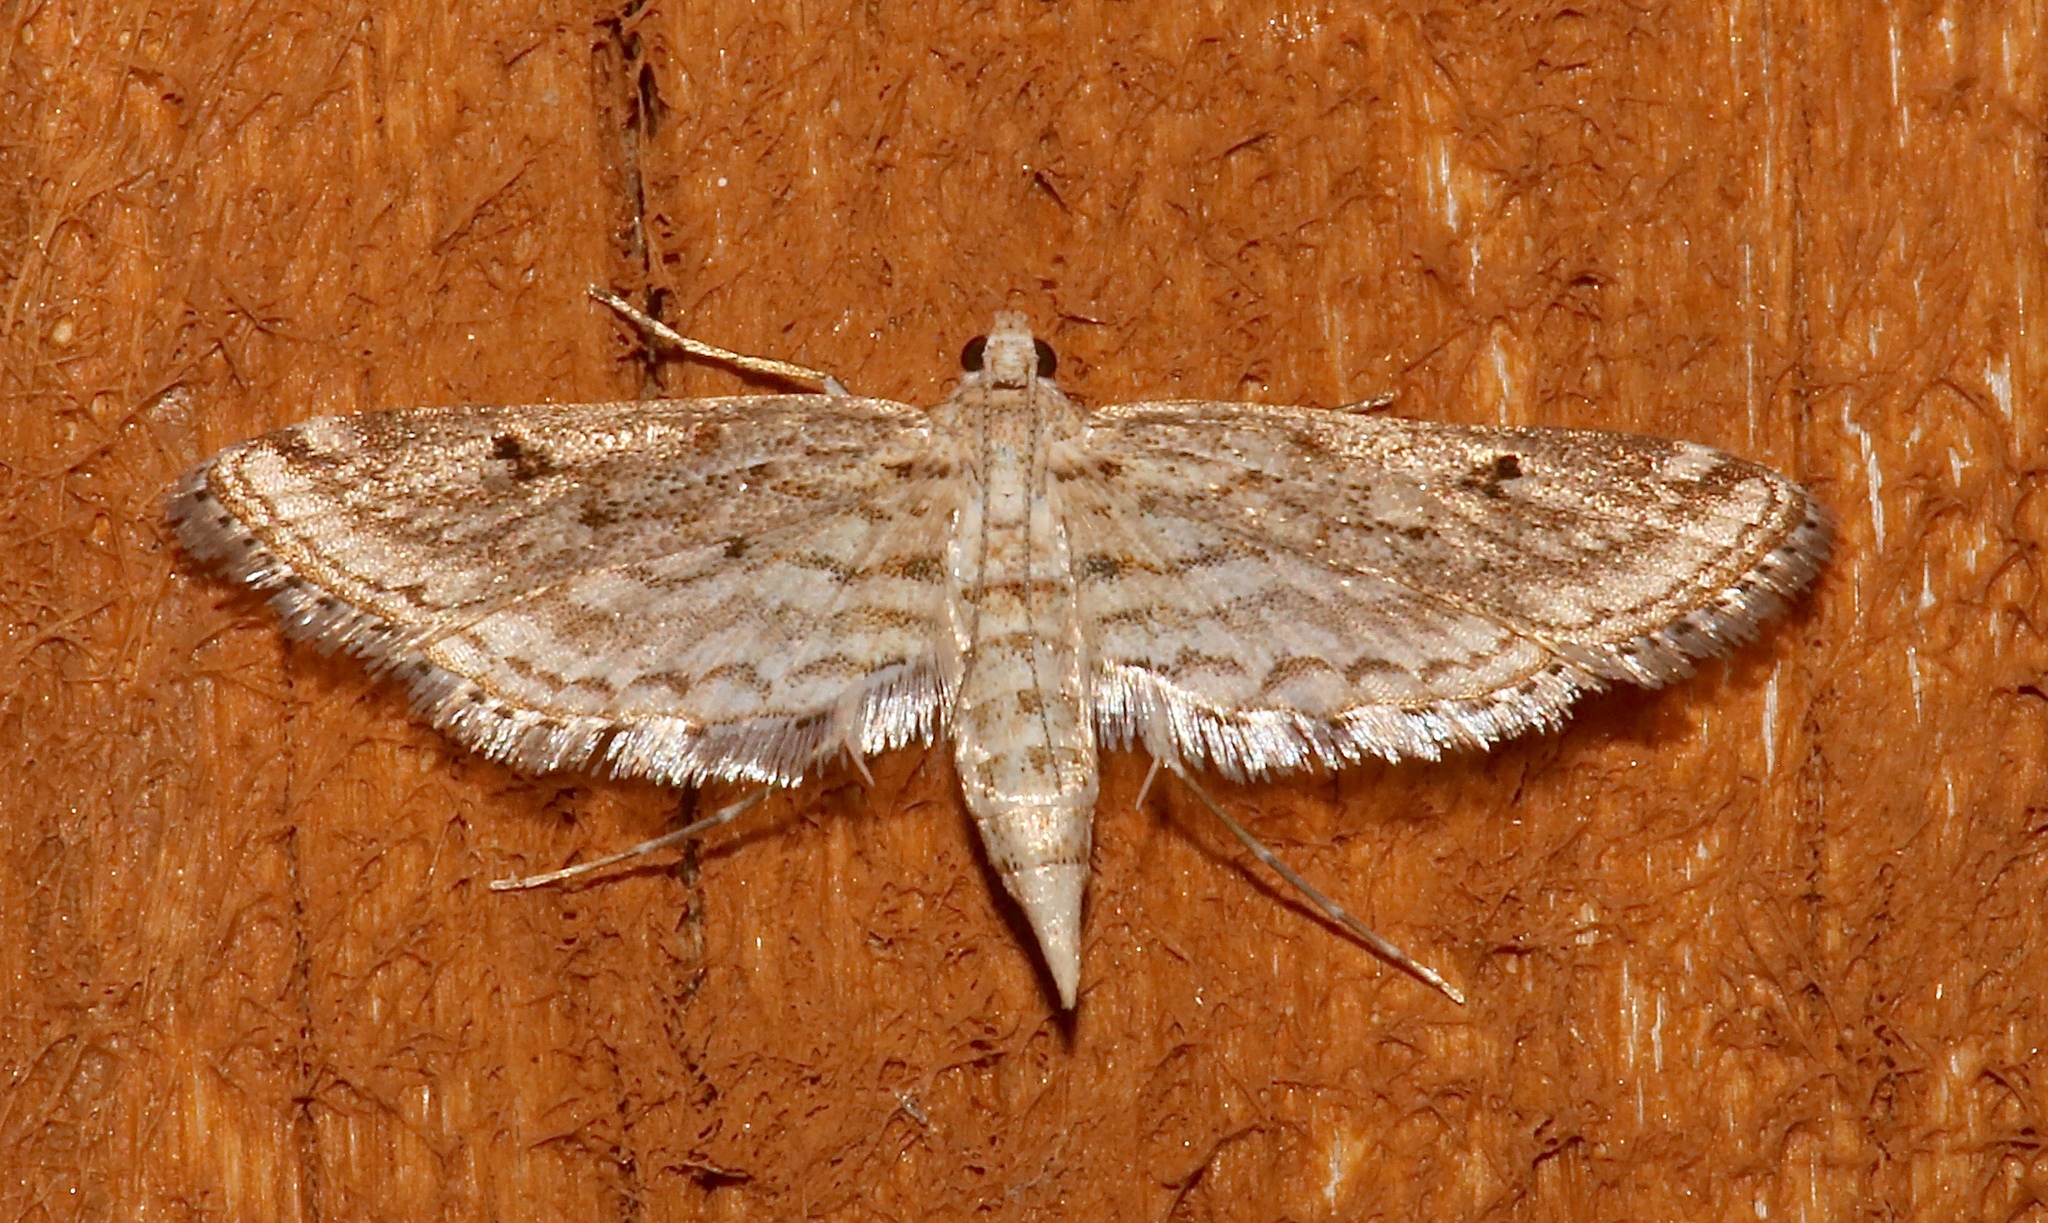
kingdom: Animalia
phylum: Arthropoda
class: Insecta
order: Lepidoptera
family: Crambidae
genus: Parapoynx
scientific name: Parapoynx allionealis
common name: Bladderwort casemaker
